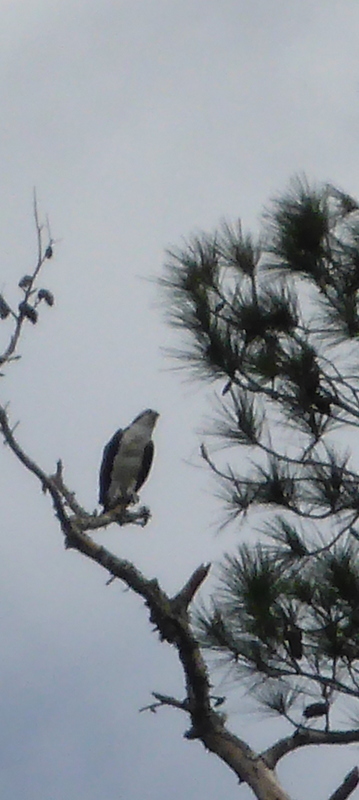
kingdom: Animalia
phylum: Chordata
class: Aves
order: Accipitriformes
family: Pandionidae
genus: Pandion
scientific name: Pandion haliaetus
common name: Osprey
